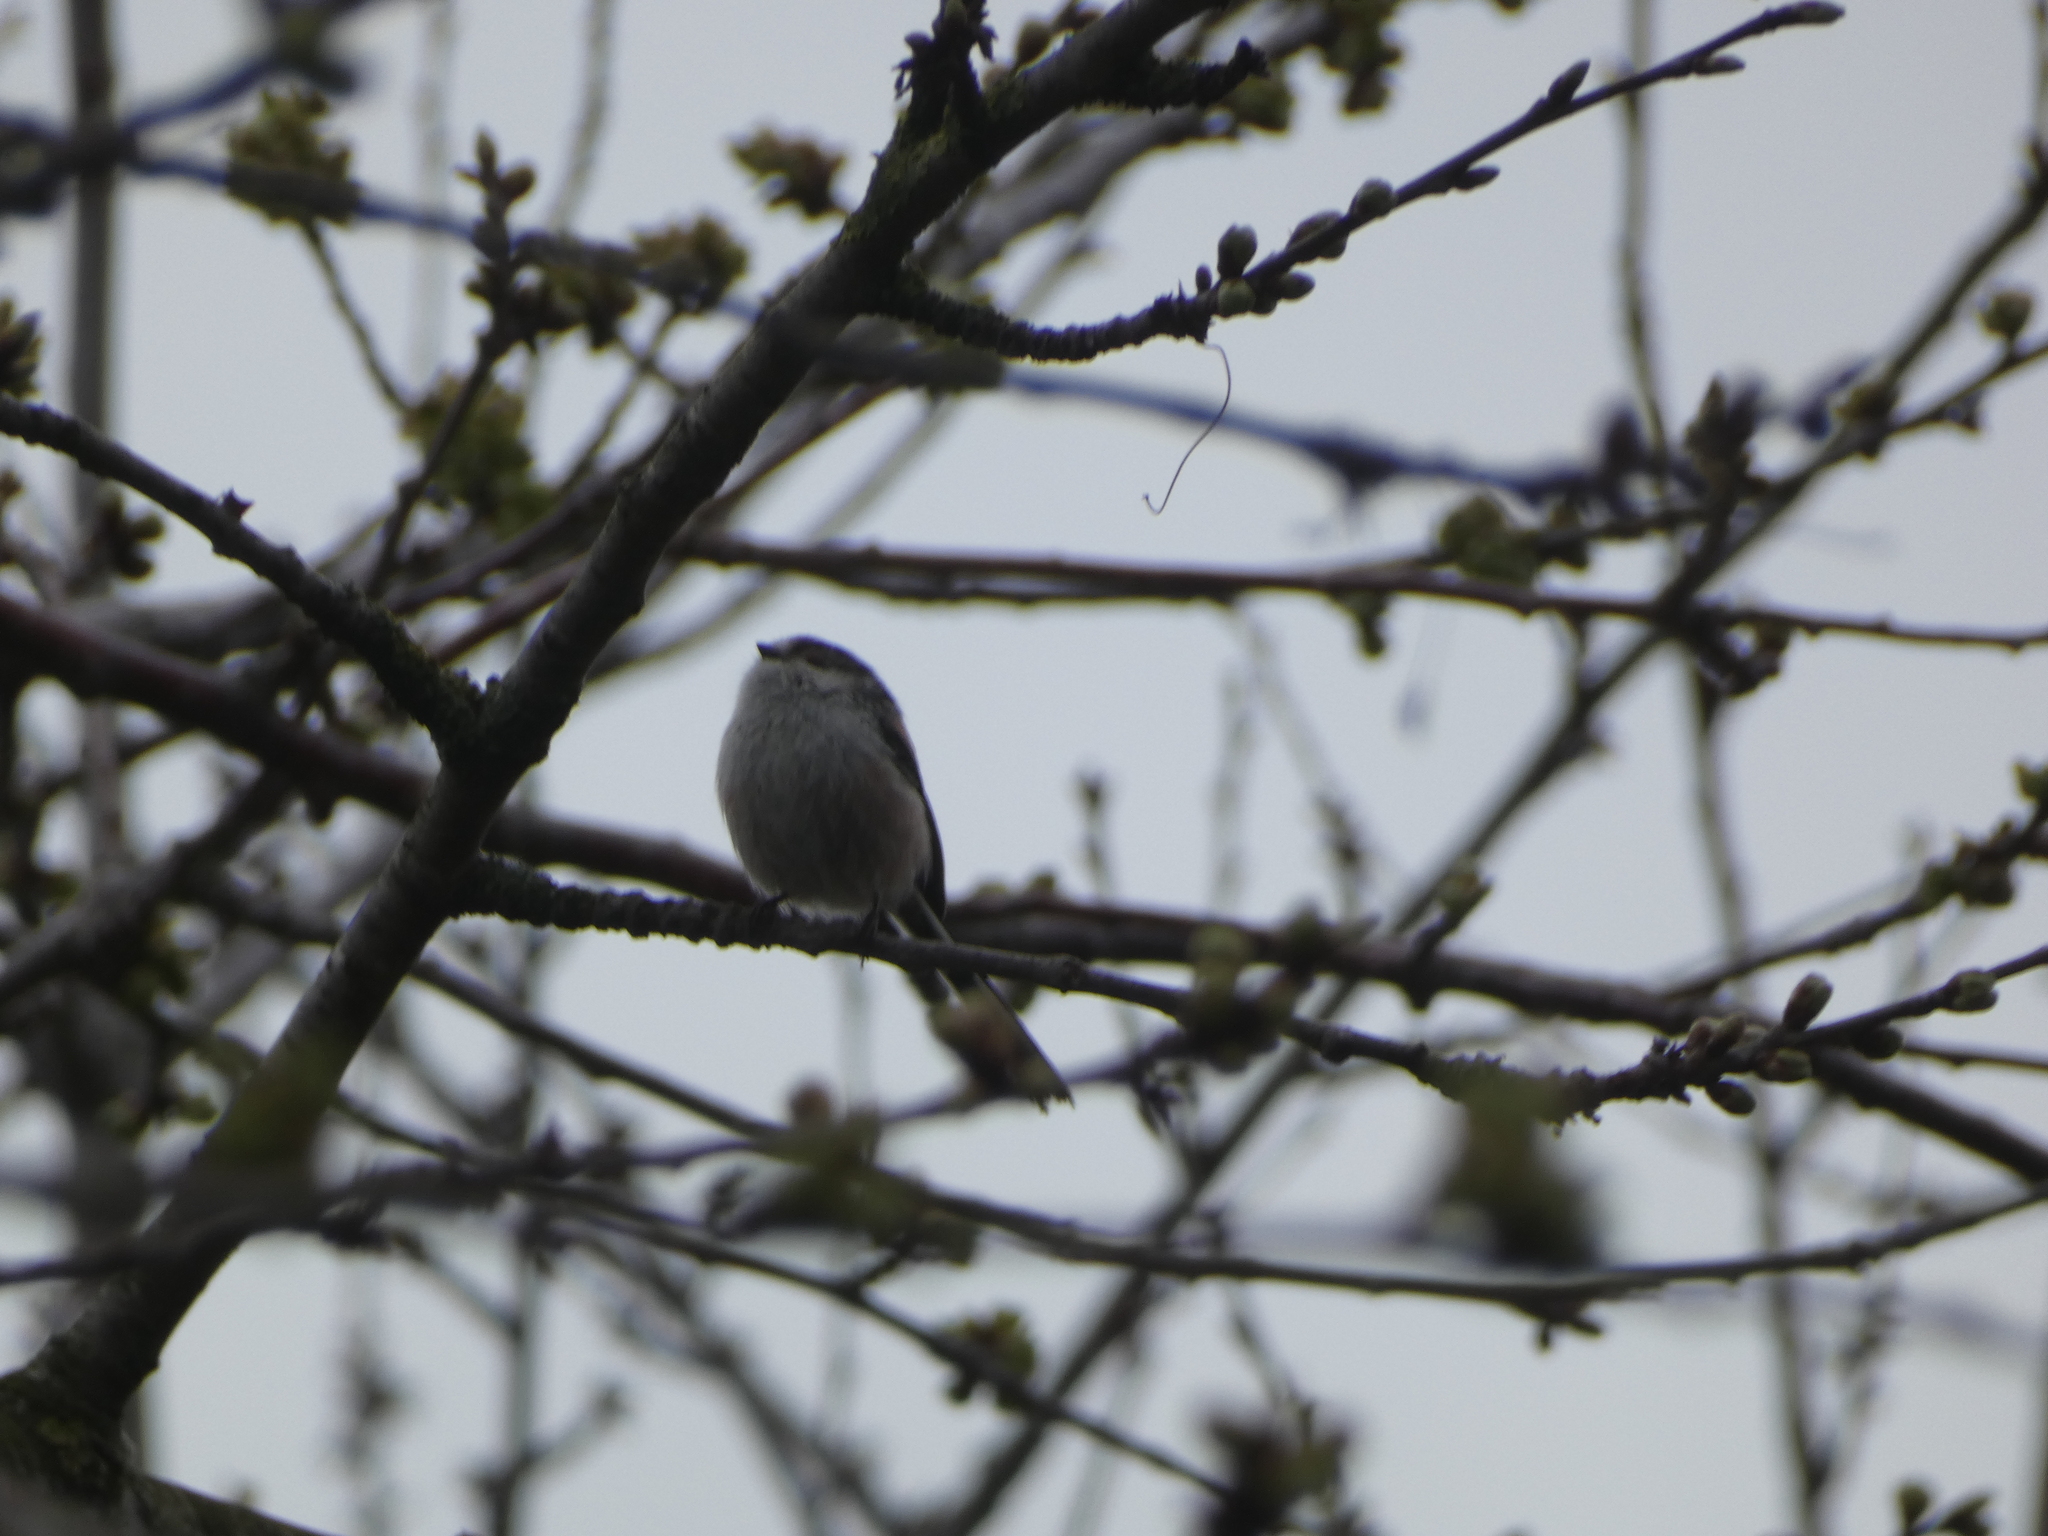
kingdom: Animalia
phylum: Chordata
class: Aves
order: Passeriformes
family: Aegithalidae
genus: Aegithalos
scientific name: Aegithalos caudatus
